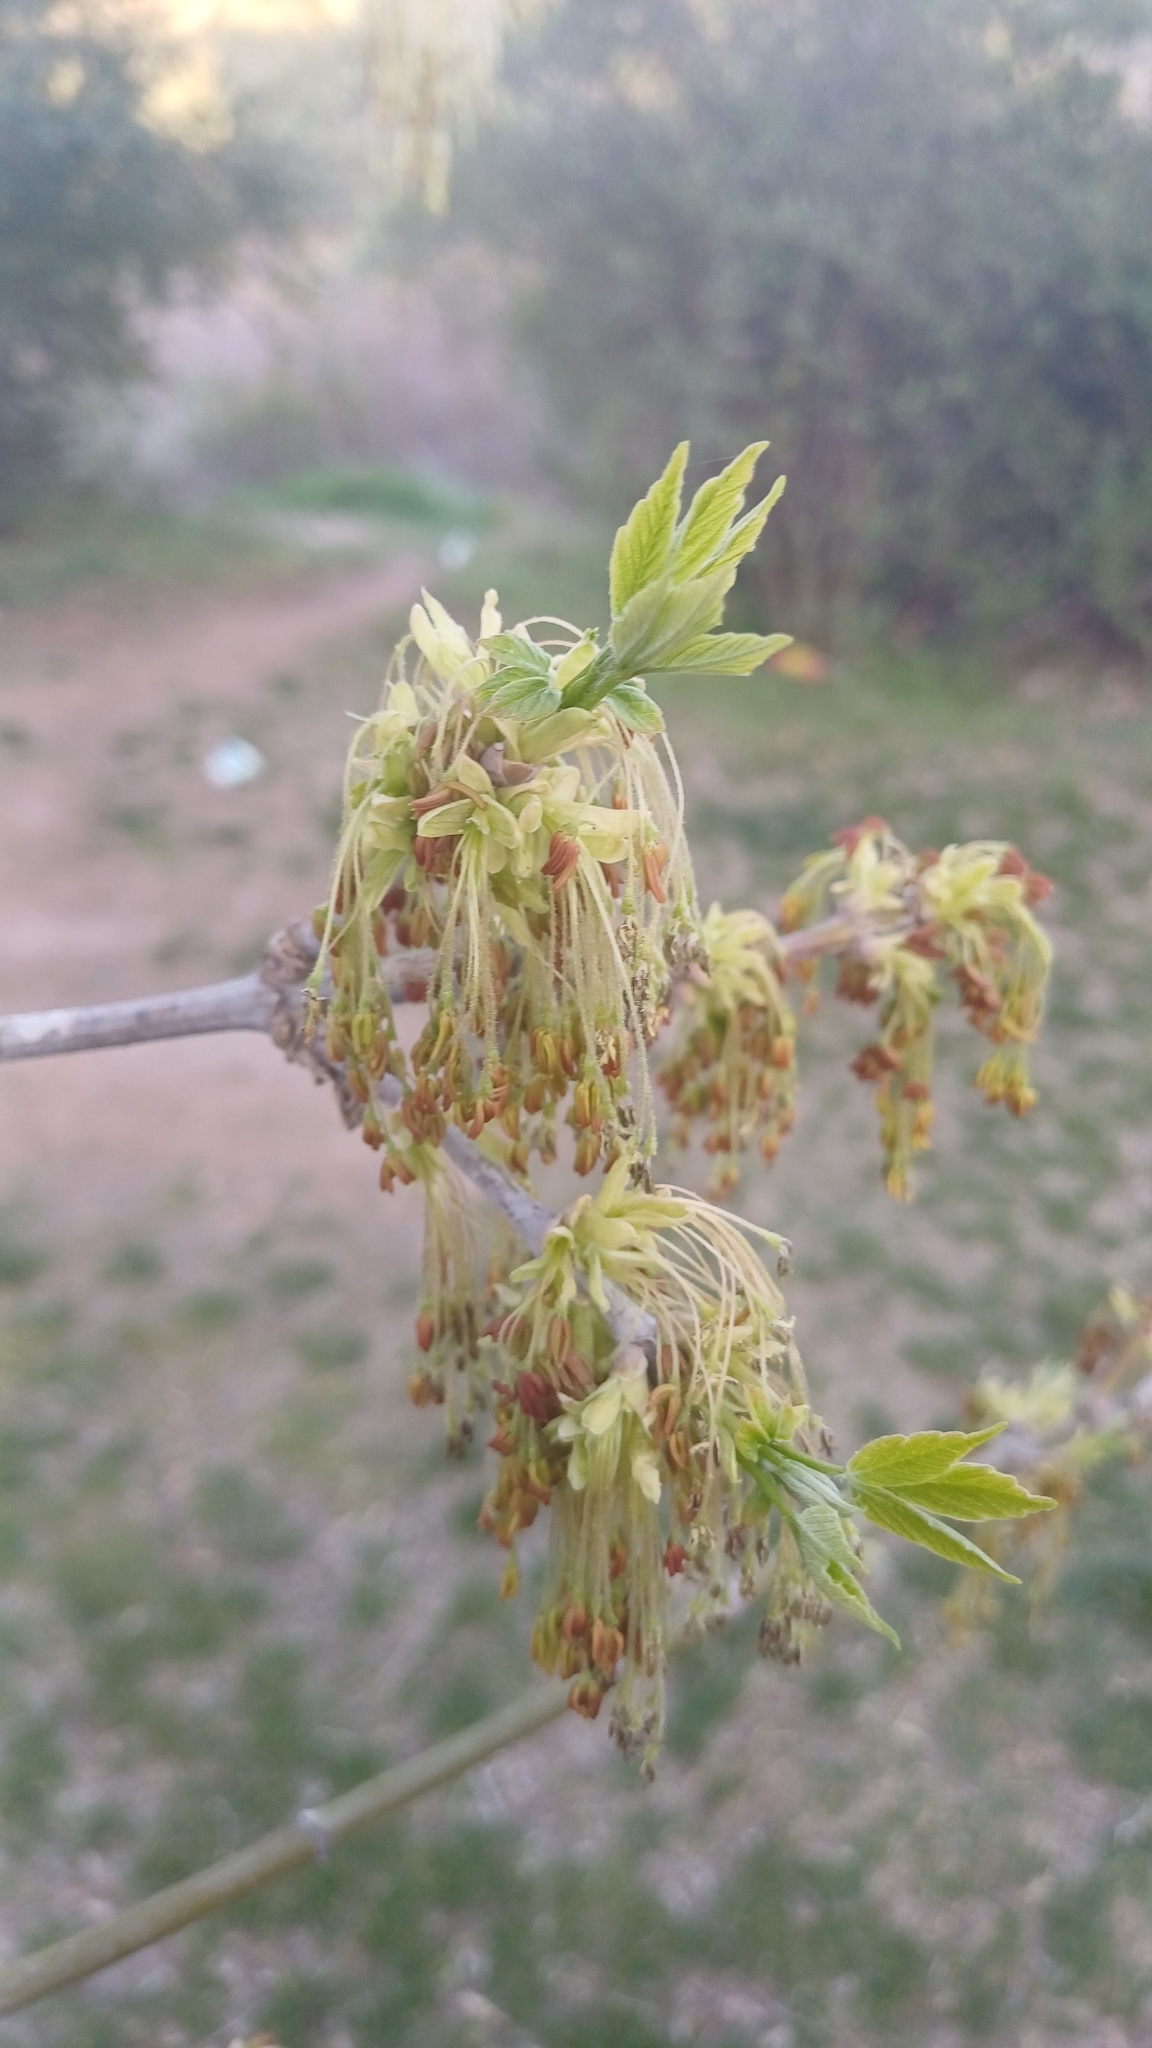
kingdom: Plantae
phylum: Tracheophyta
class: Magnoliopsida
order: Sapindales
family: Sapindaceae
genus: Acer
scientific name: Acer negundo
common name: Ashleaf maple
